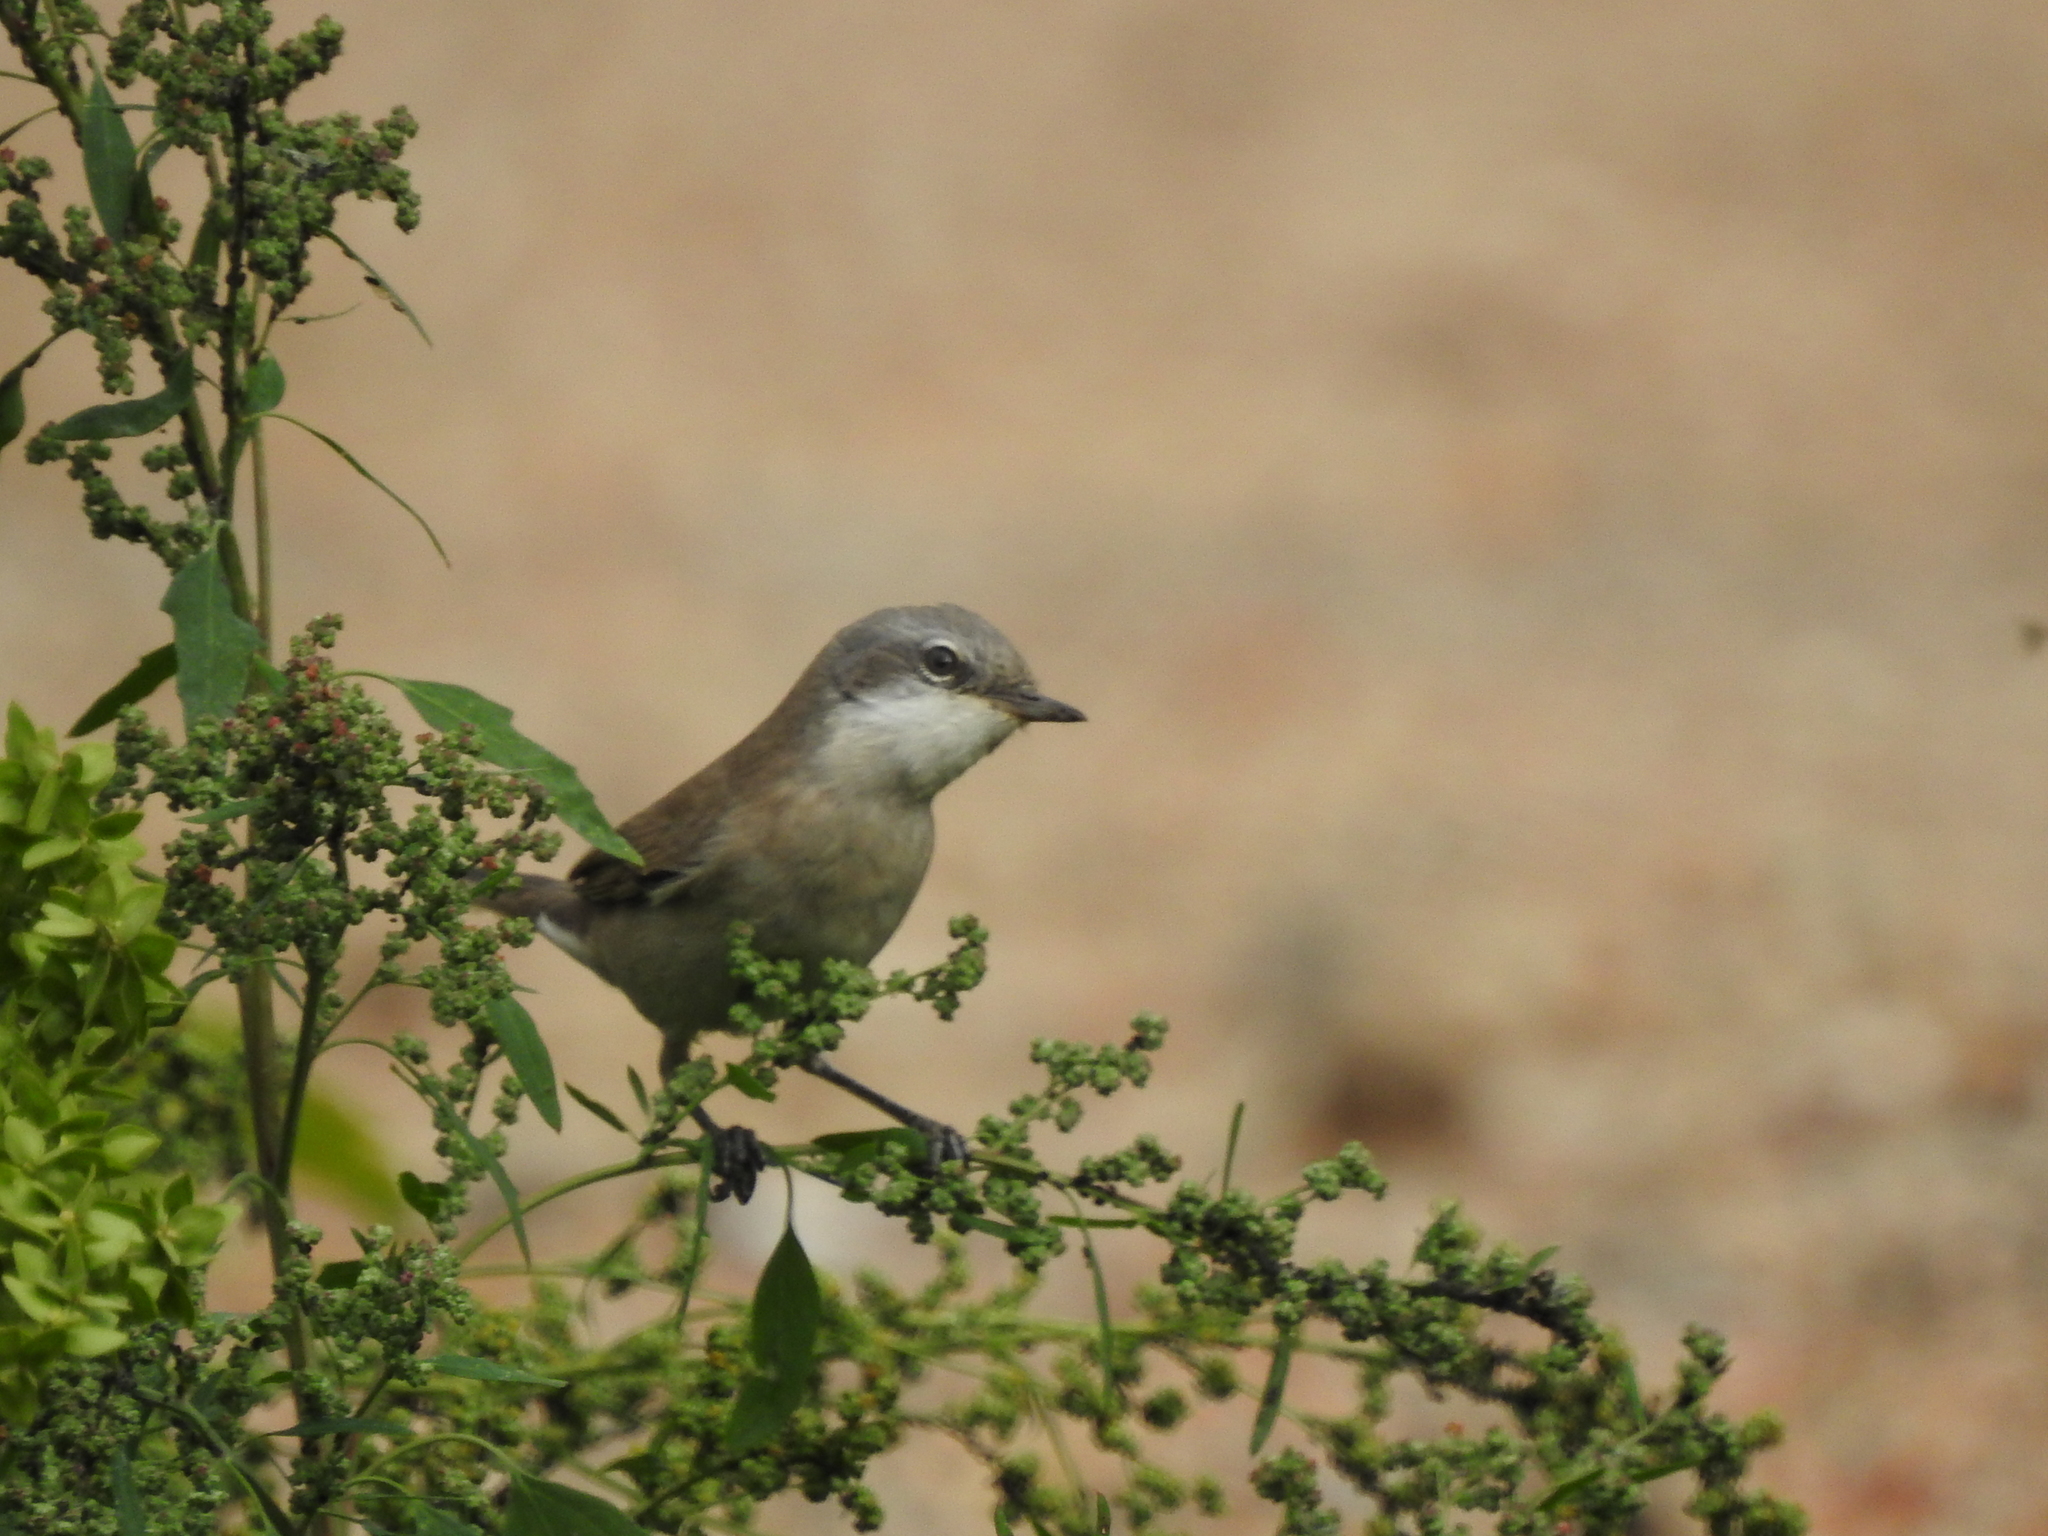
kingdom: Animalia
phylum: Chordata
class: Aves
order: Passeriformes
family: Sylviidae
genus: Sylvia
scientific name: Sylvia curruca
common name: Lesser whitethroat
